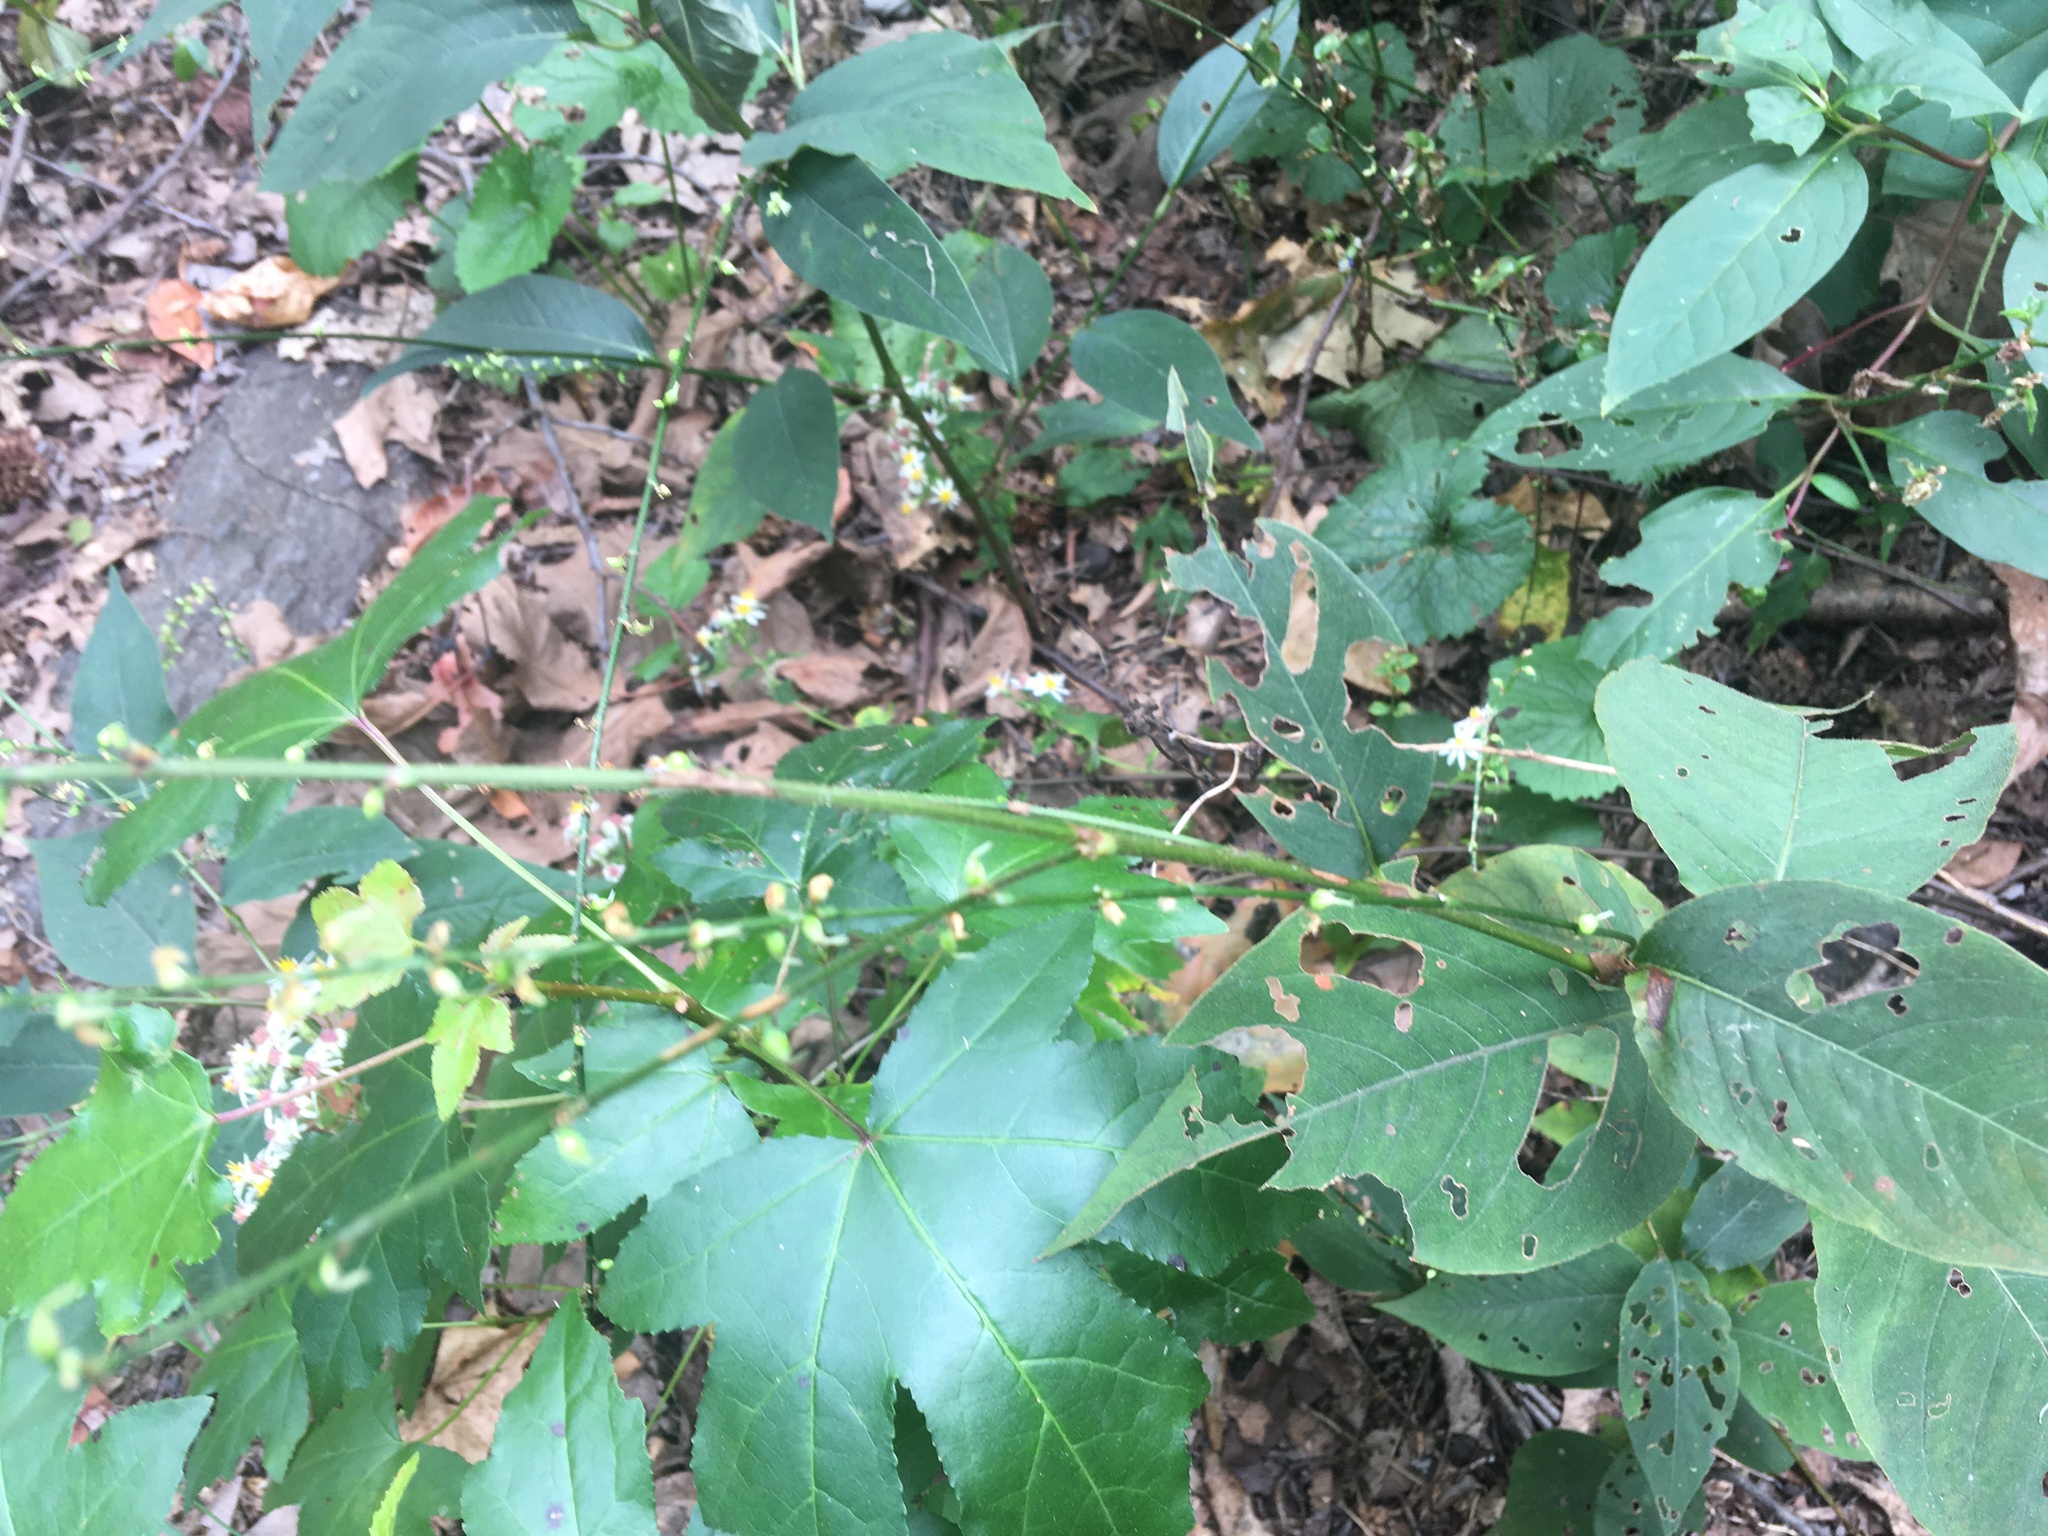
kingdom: Plantae
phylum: Tracheophyta
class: Magnoliopsida
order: Caryophyllales
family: Polygonaceae
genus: Persicaria
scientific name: Persicaria virginiana
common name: Jumpseed
